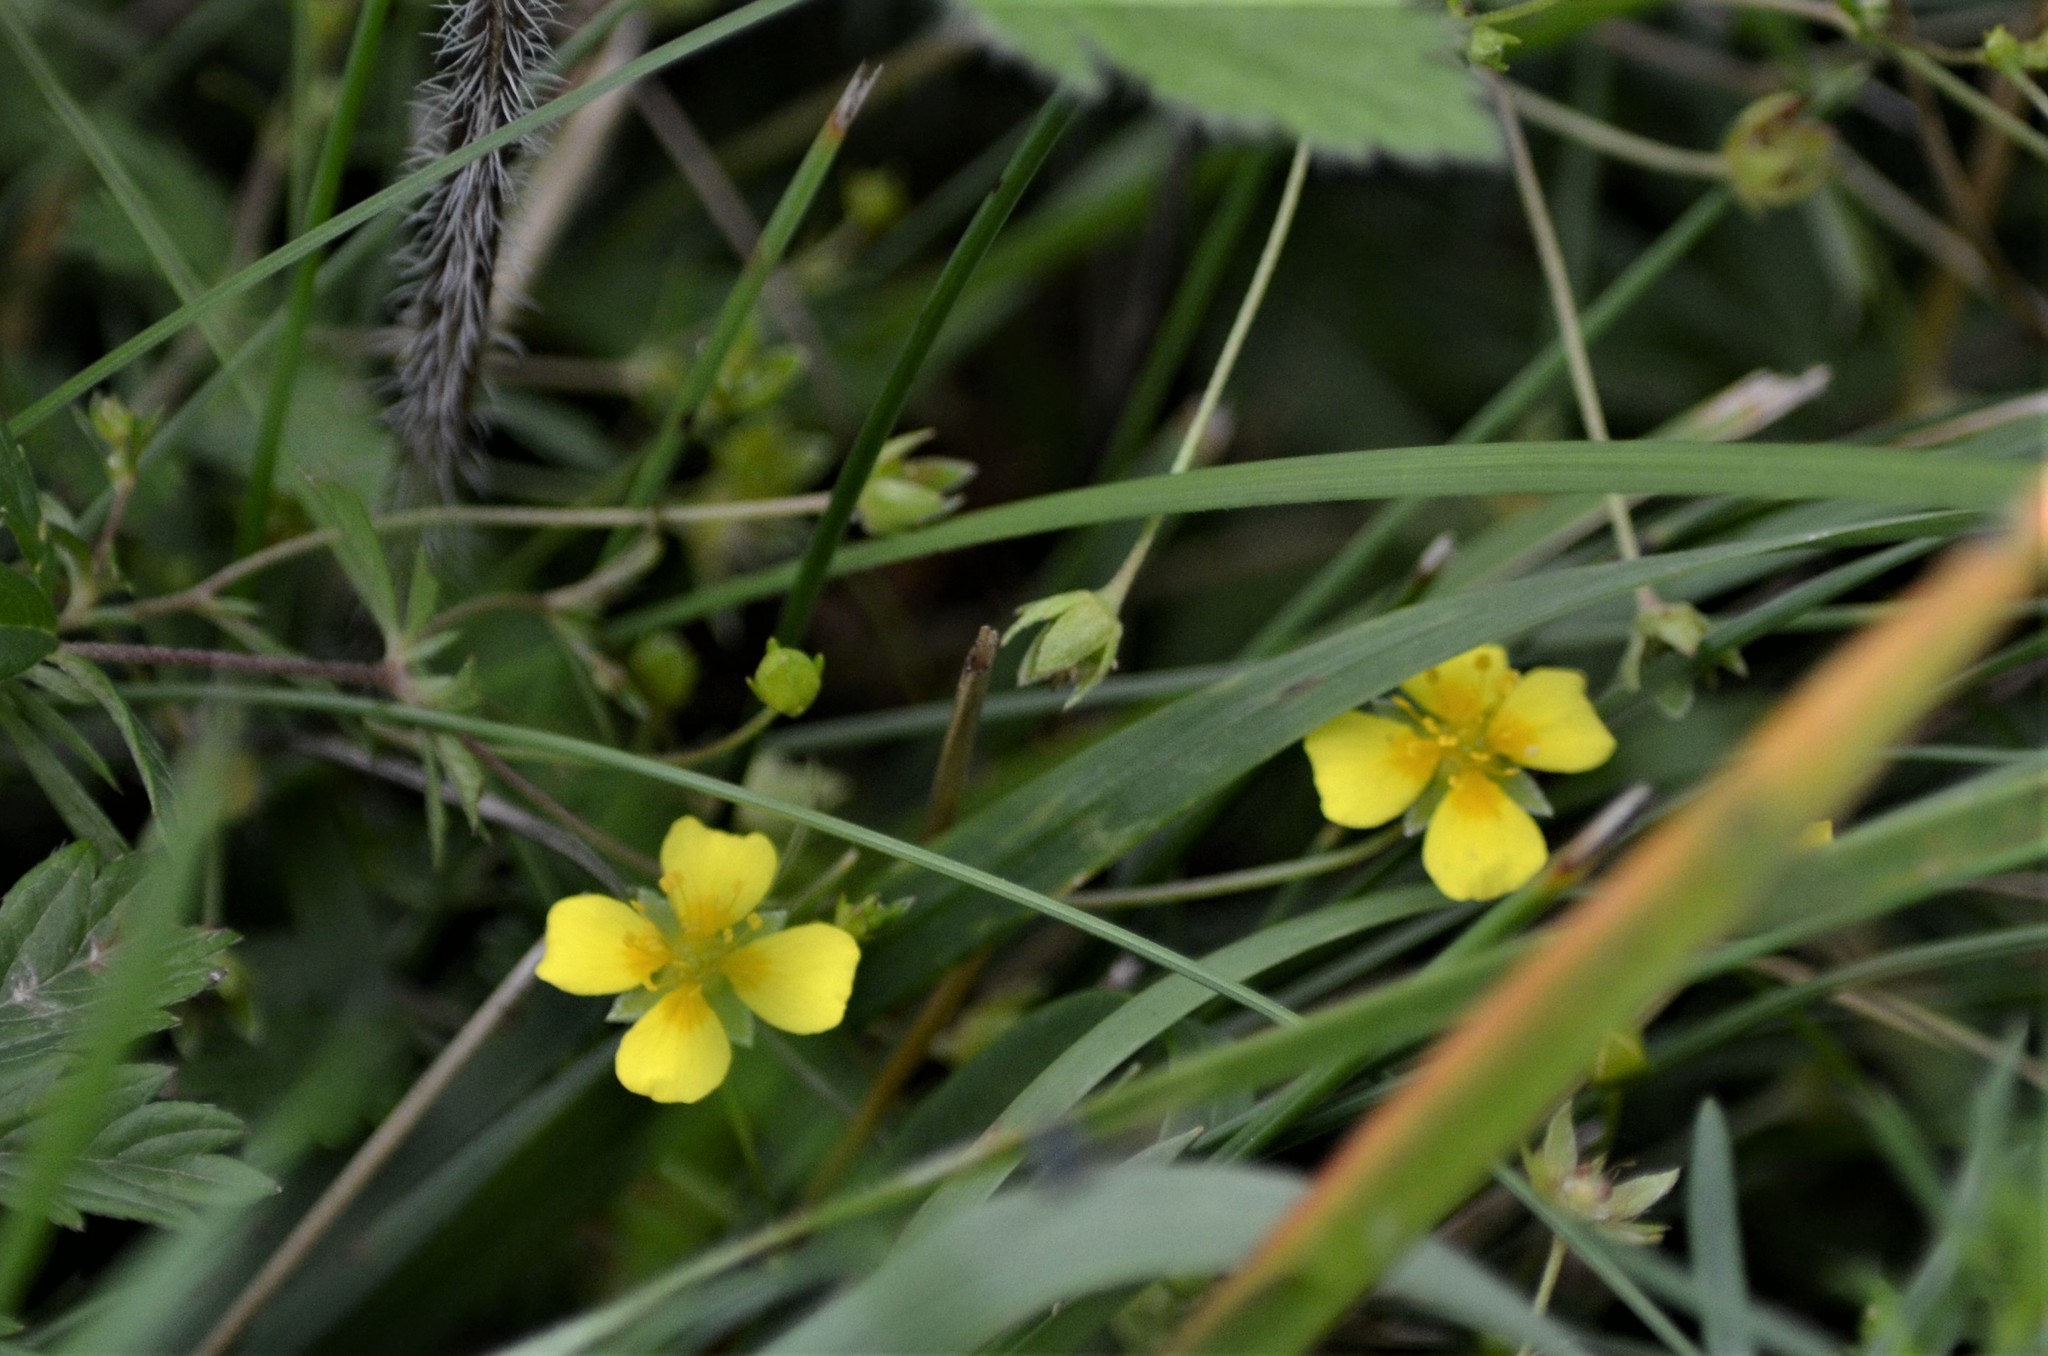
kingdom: Plantae
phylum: Tracheophyta
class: Magnoliopsida
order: Rosales
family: Rosaceae
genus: Potentilla
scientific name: Potentilla erecta
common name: Tormentil
